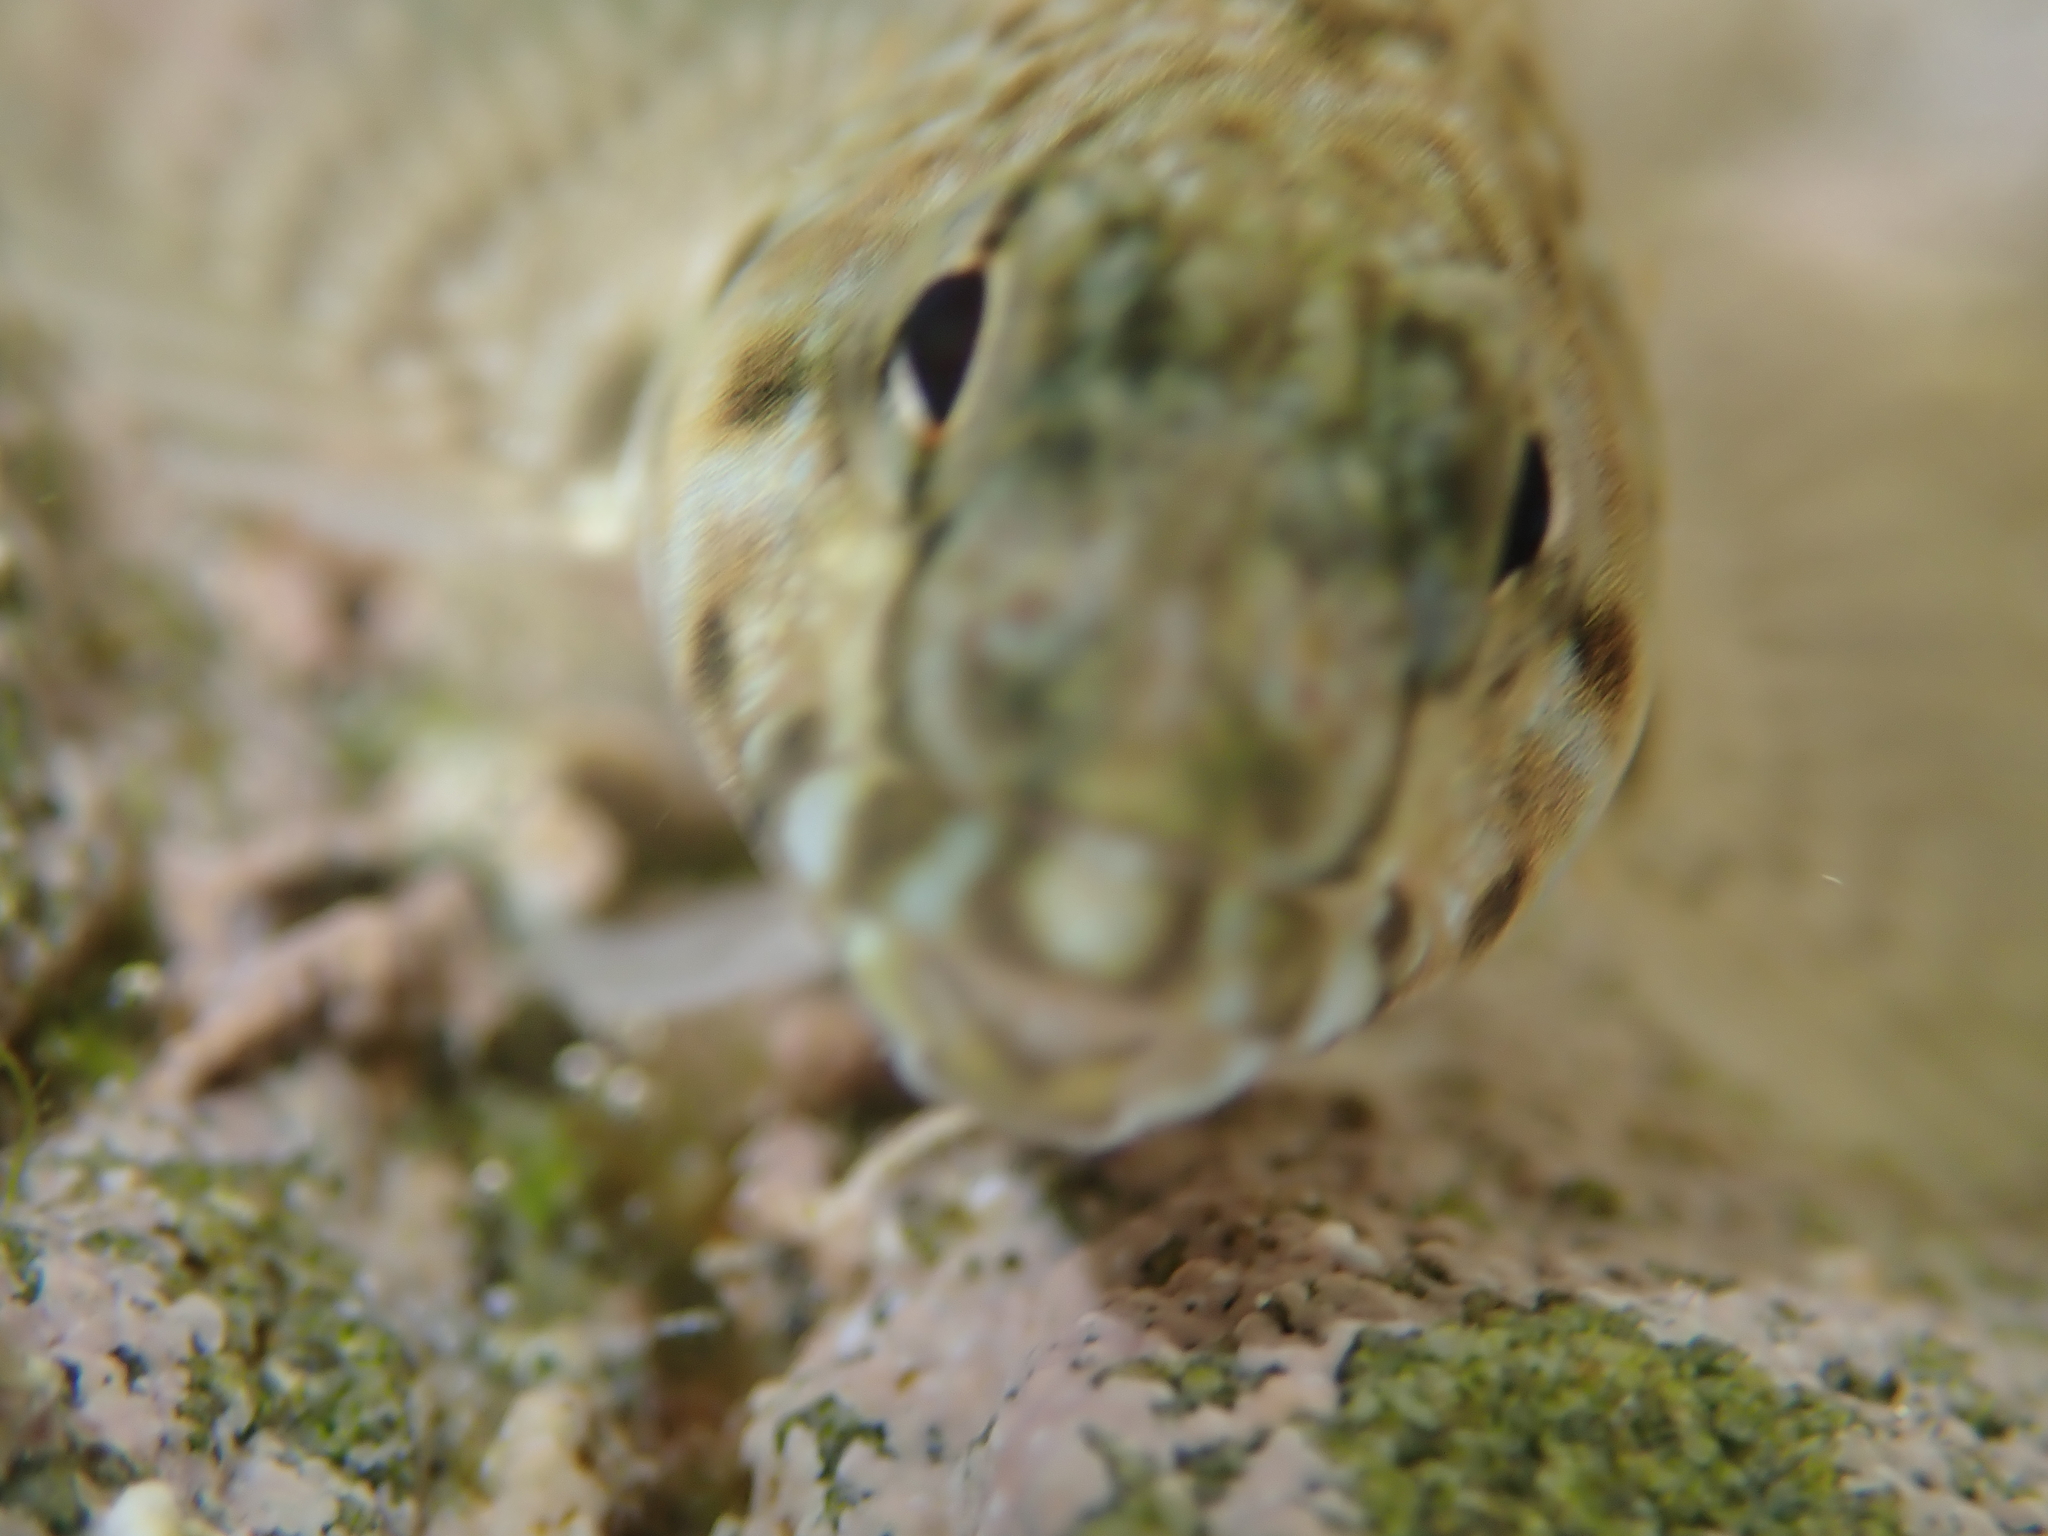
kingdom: Animalia
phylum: Chordata
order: Perciformes
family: Tripterygiidae
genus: Bellapiscis
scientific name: Bellapiscis medius
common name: Twister
